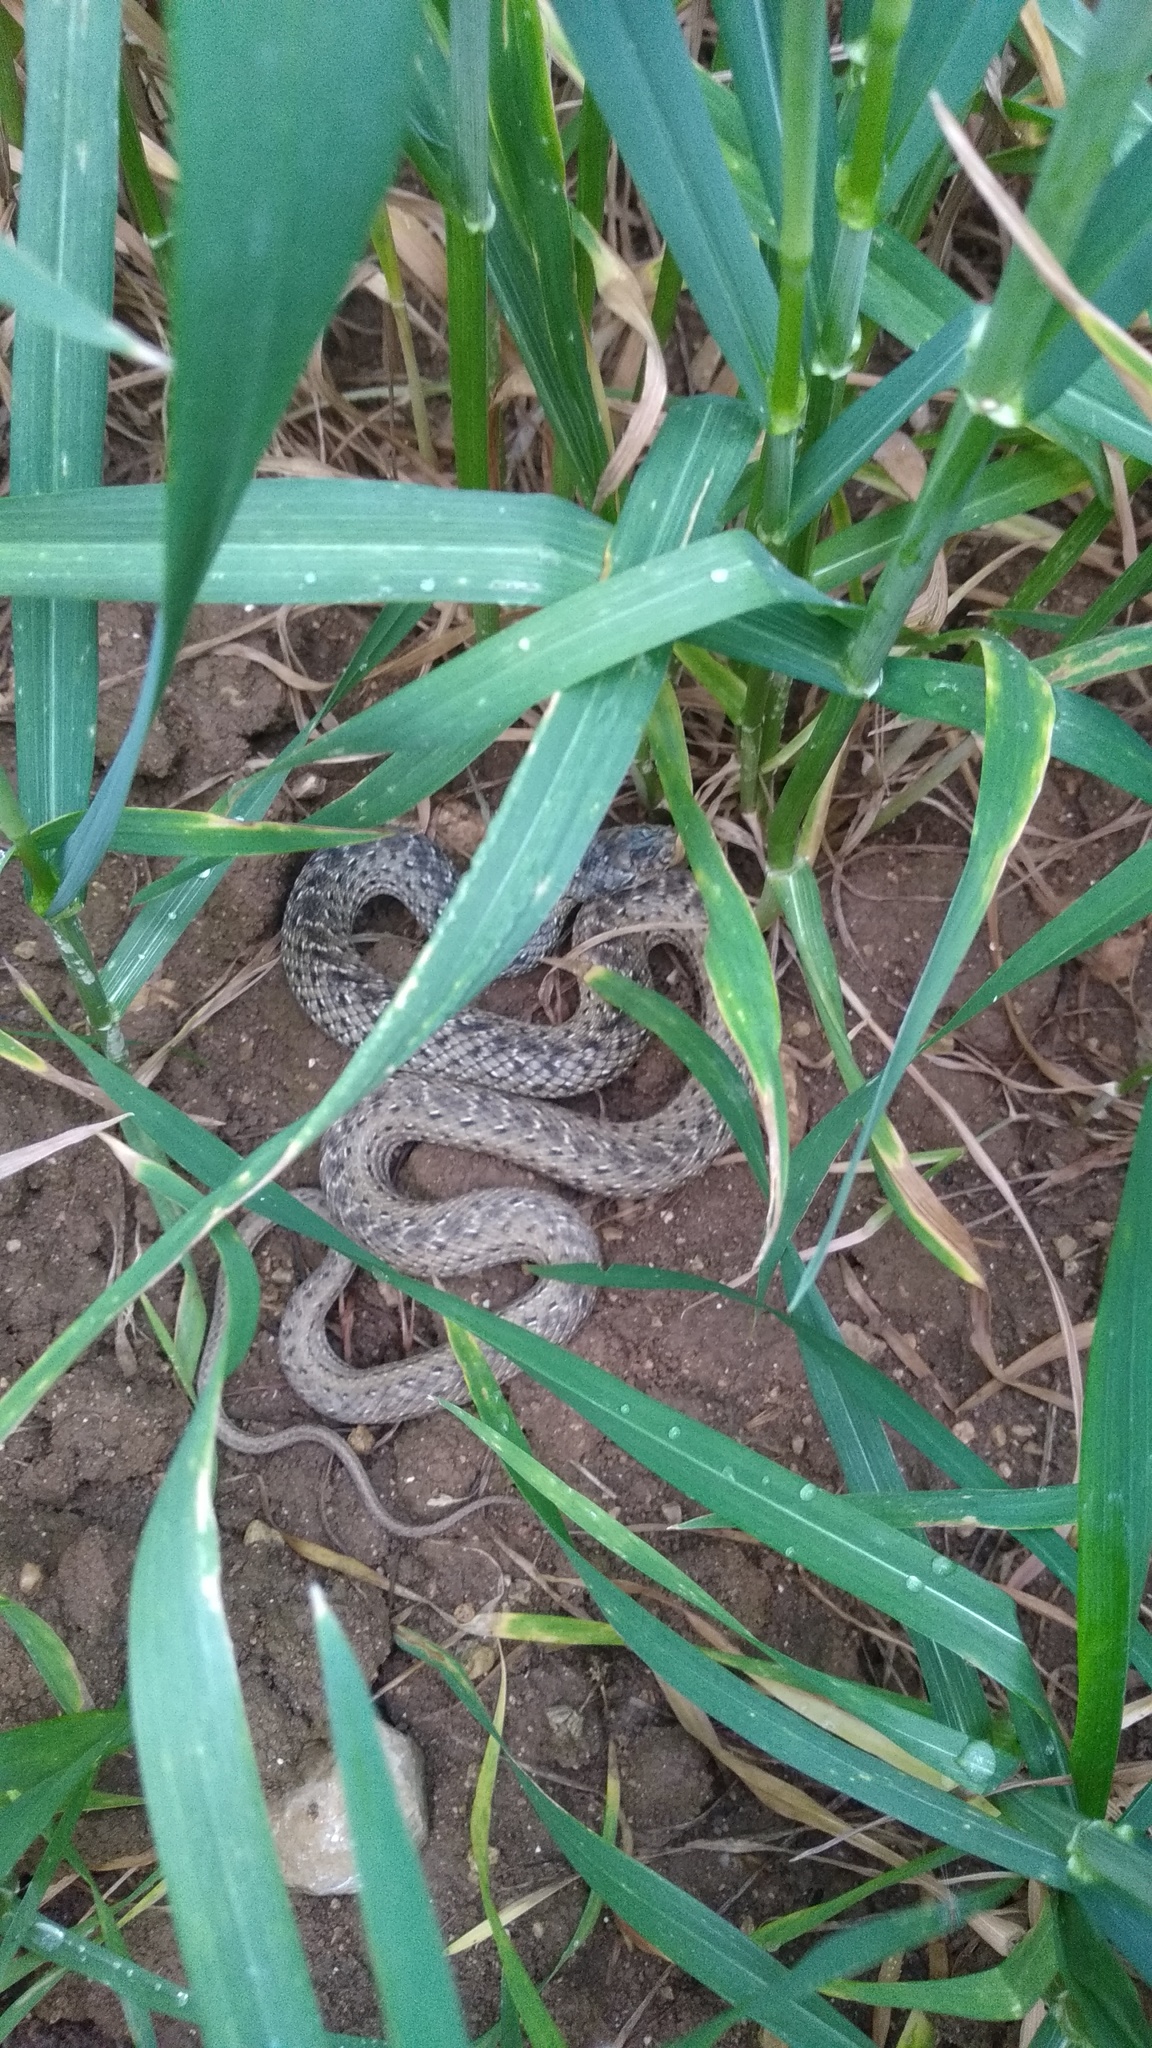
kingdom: Animalia
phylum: Chordata
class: Squamata
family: Psammophiidae
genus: Malpolon
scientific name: Malpolon monspessulanus
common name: Montpellier snake
